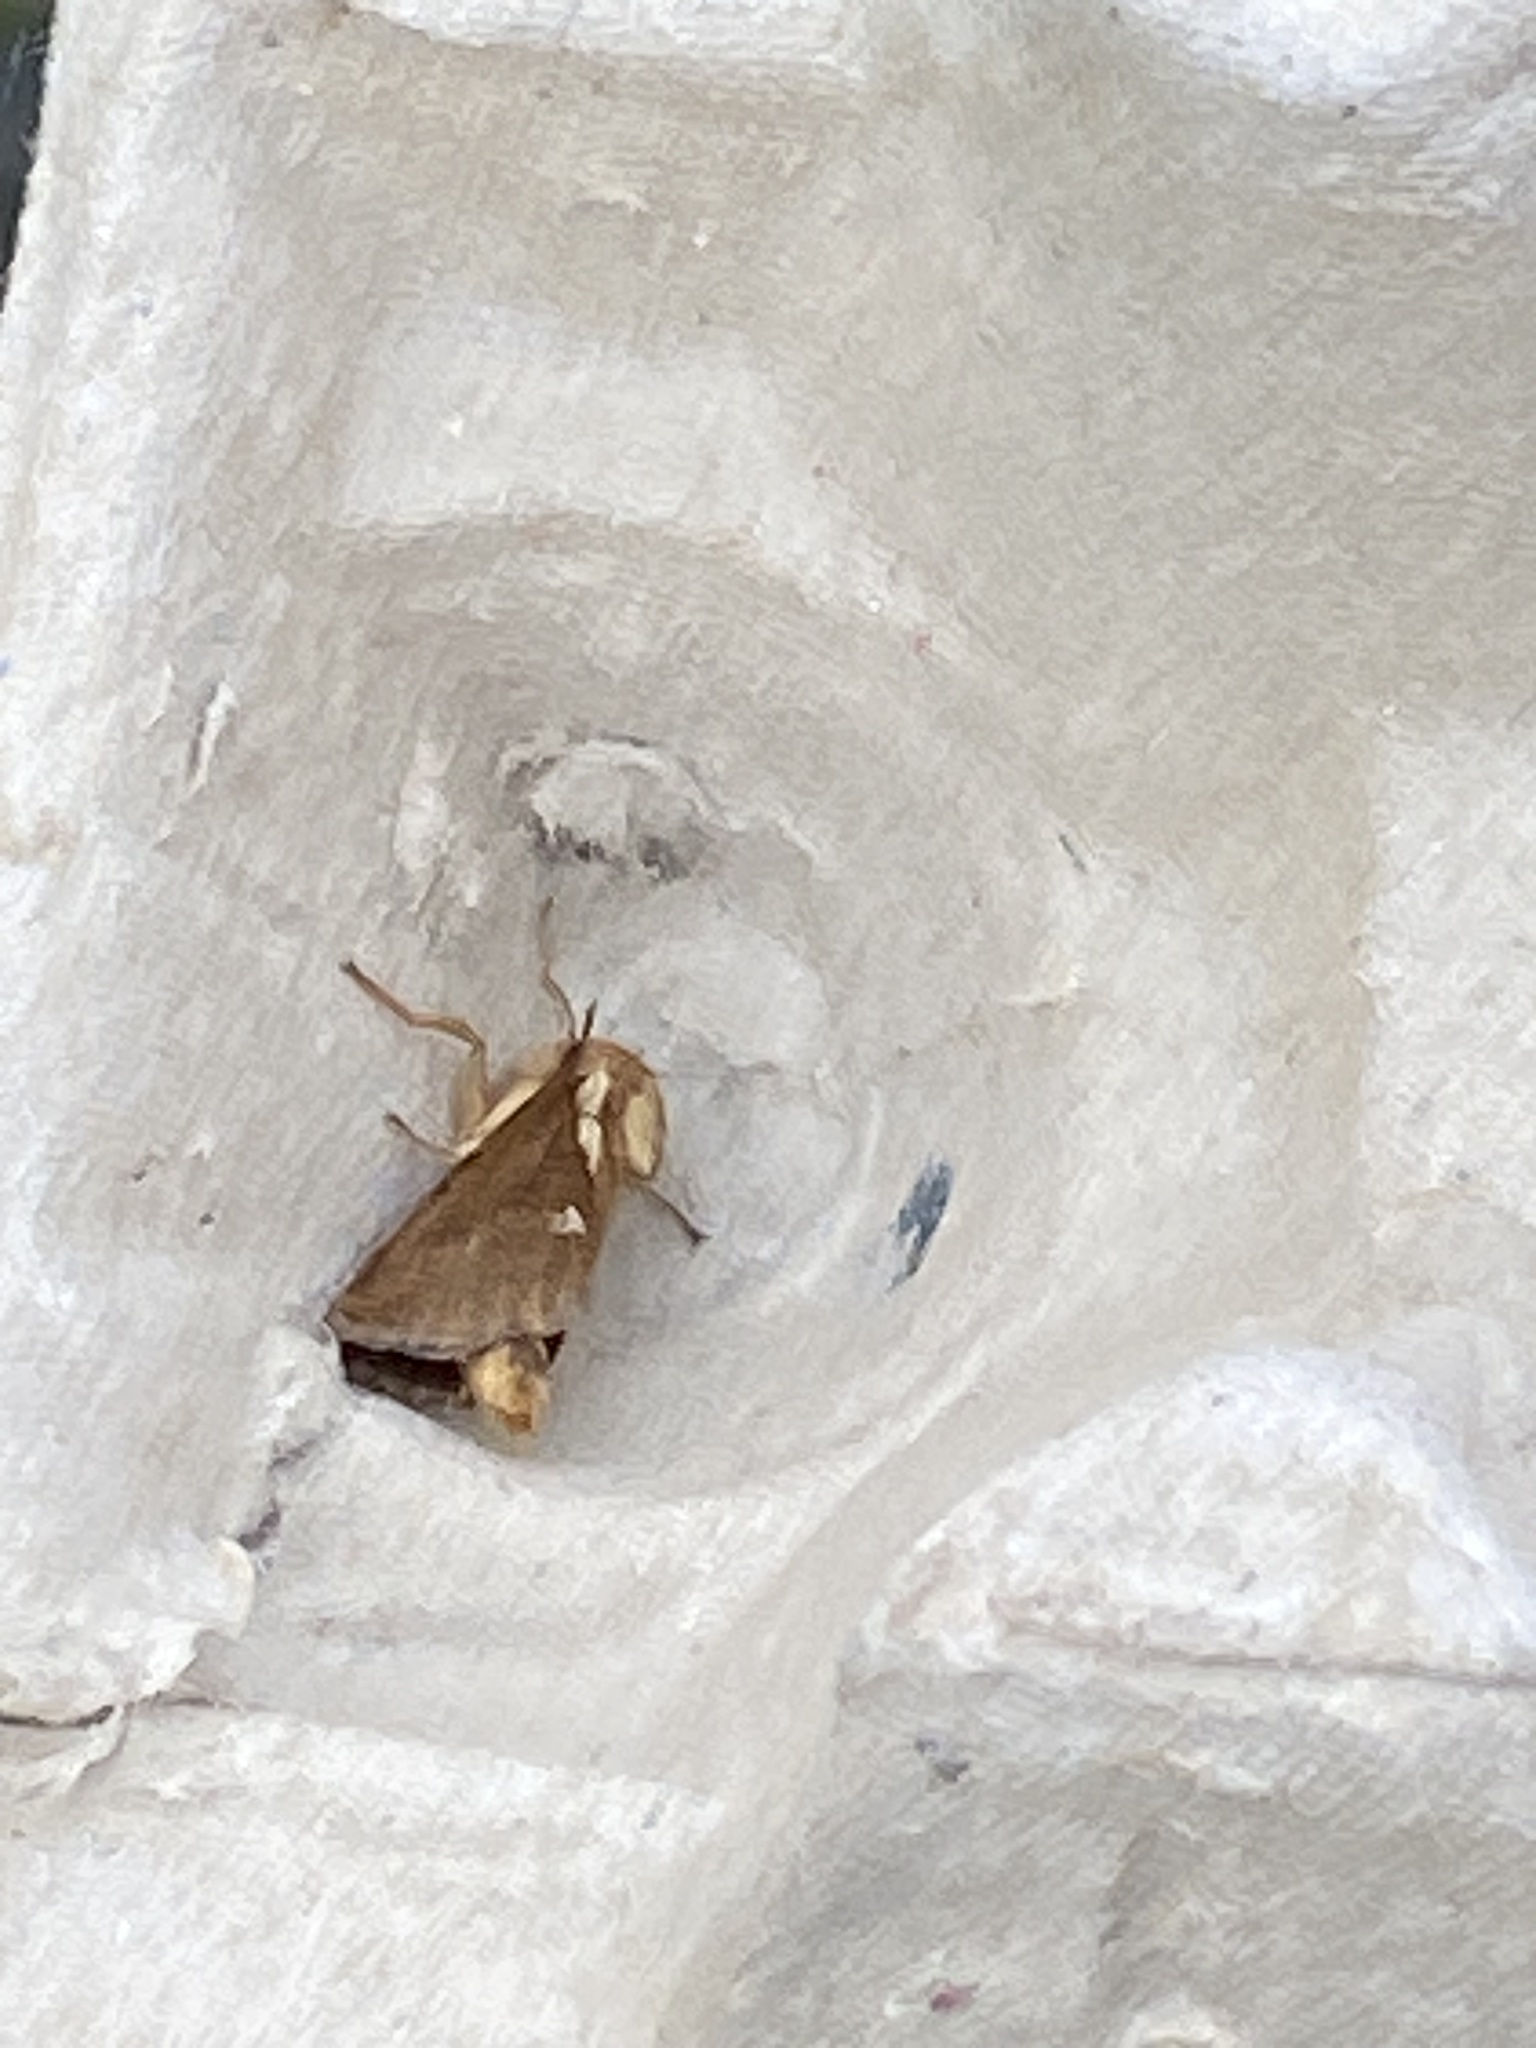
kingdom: Animalia
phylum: Arthropoda
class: Insecta
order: Lepidoptera
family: Hepialidae
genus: Korscheltellus
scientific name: Korscheltellus lupulina
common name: Common swift
